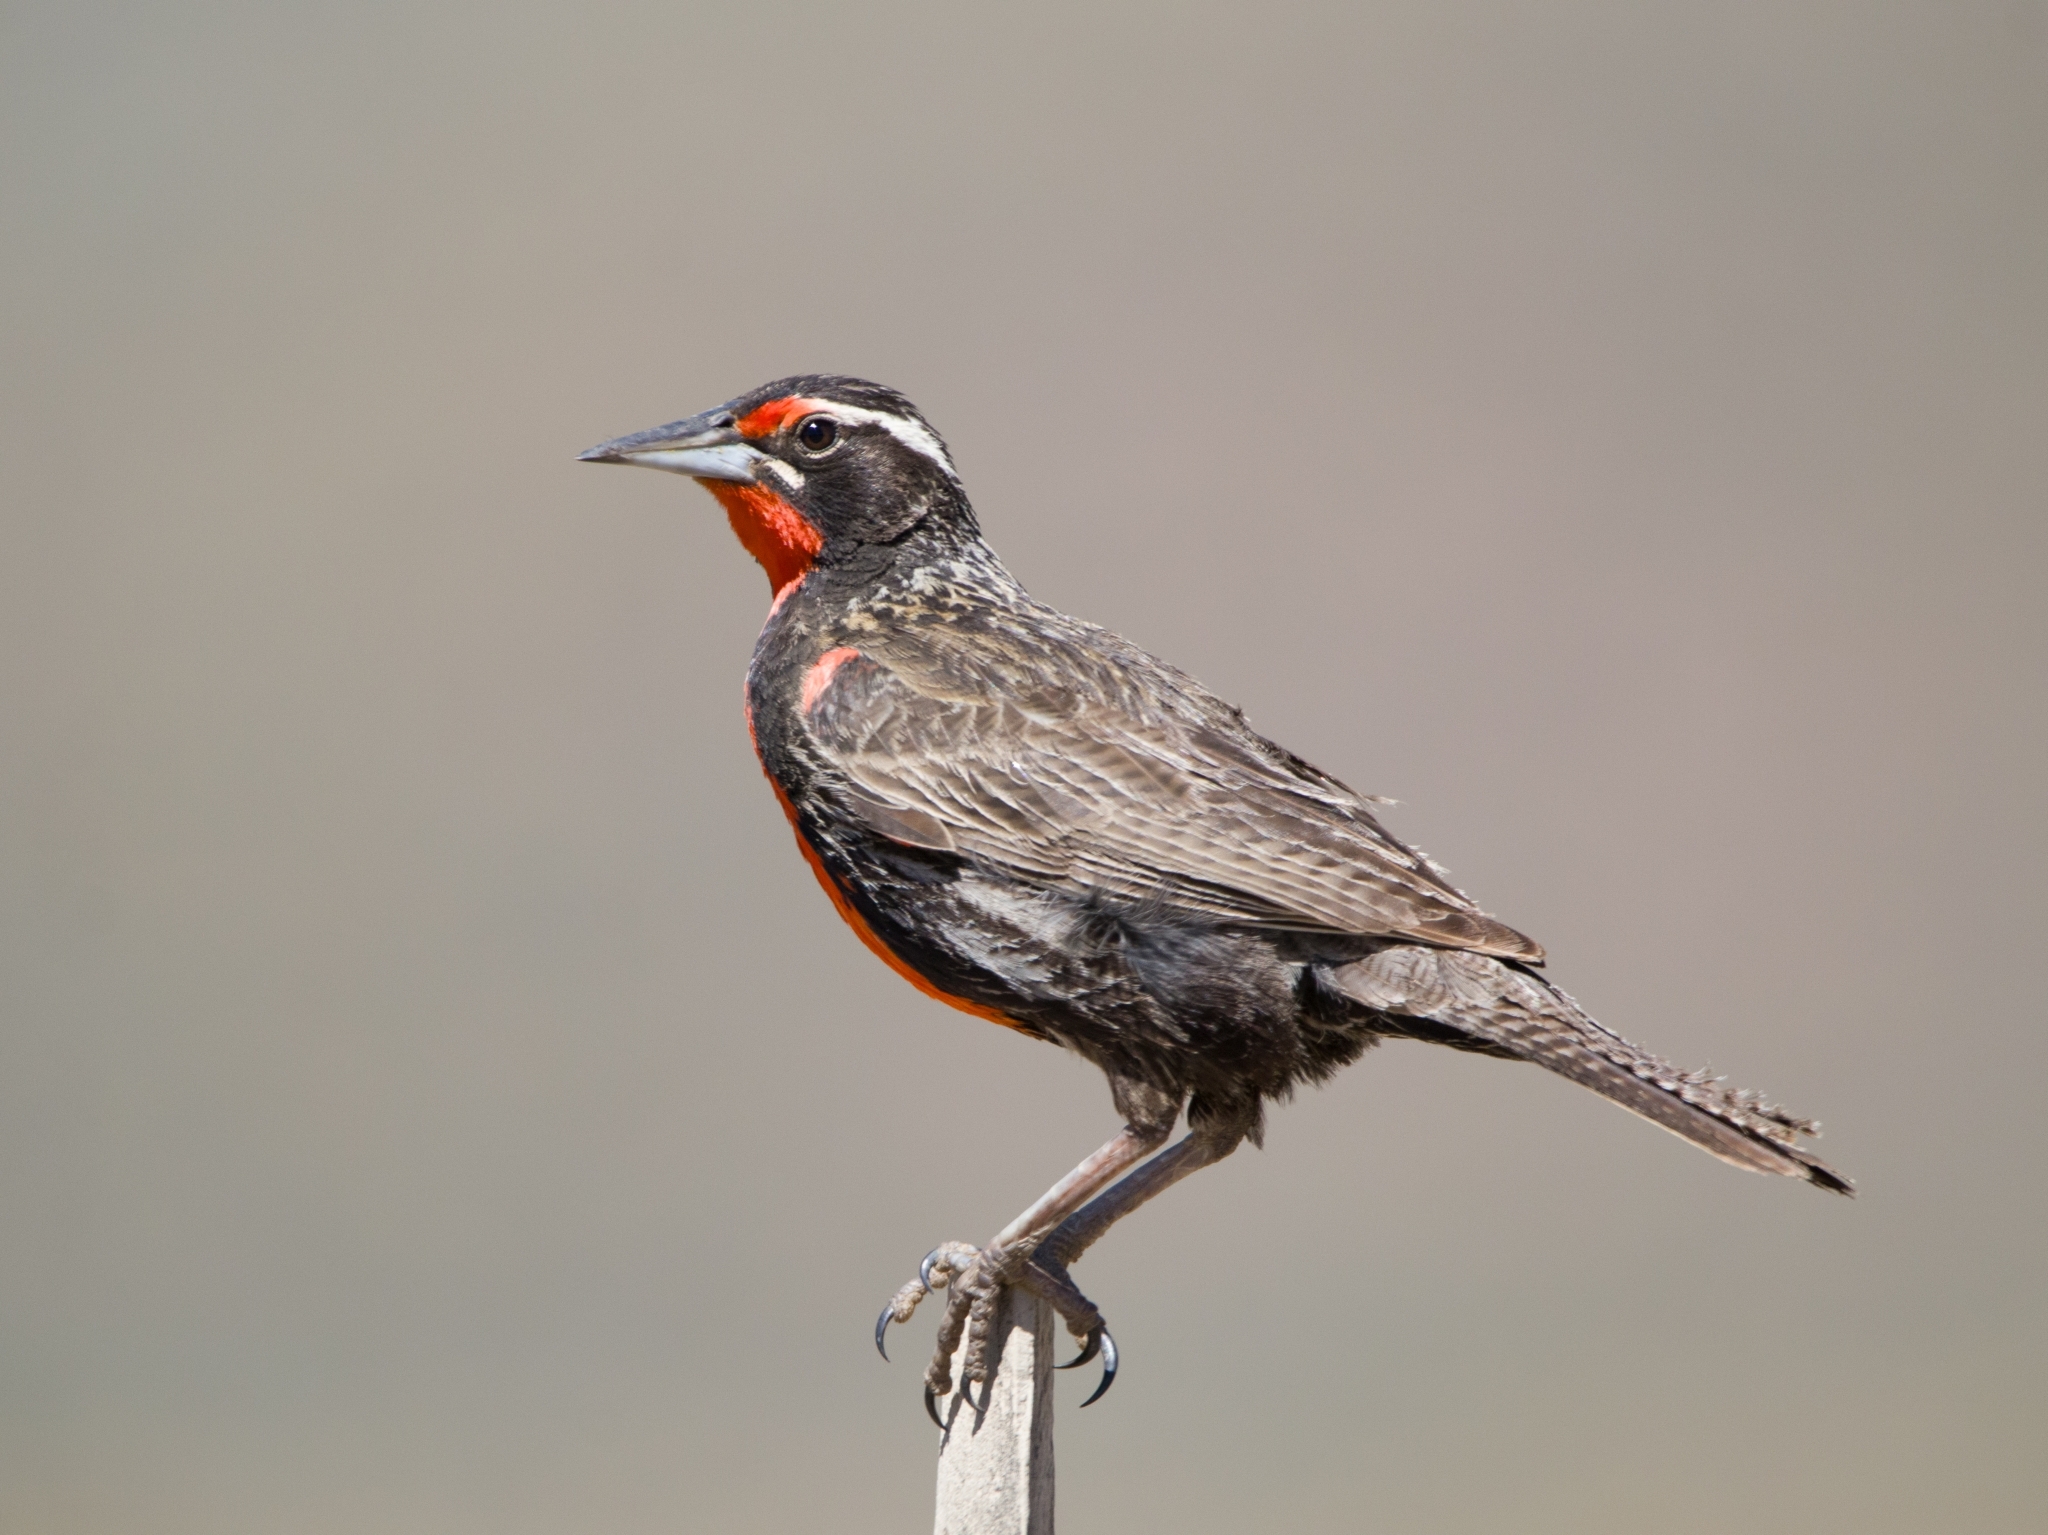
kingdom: Animalia
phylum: Chordata
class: Aves
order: Passeriformes
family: Icteridae
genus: Sturnella
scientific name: Sturnella loyca
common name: Long-tailed meadowlark
